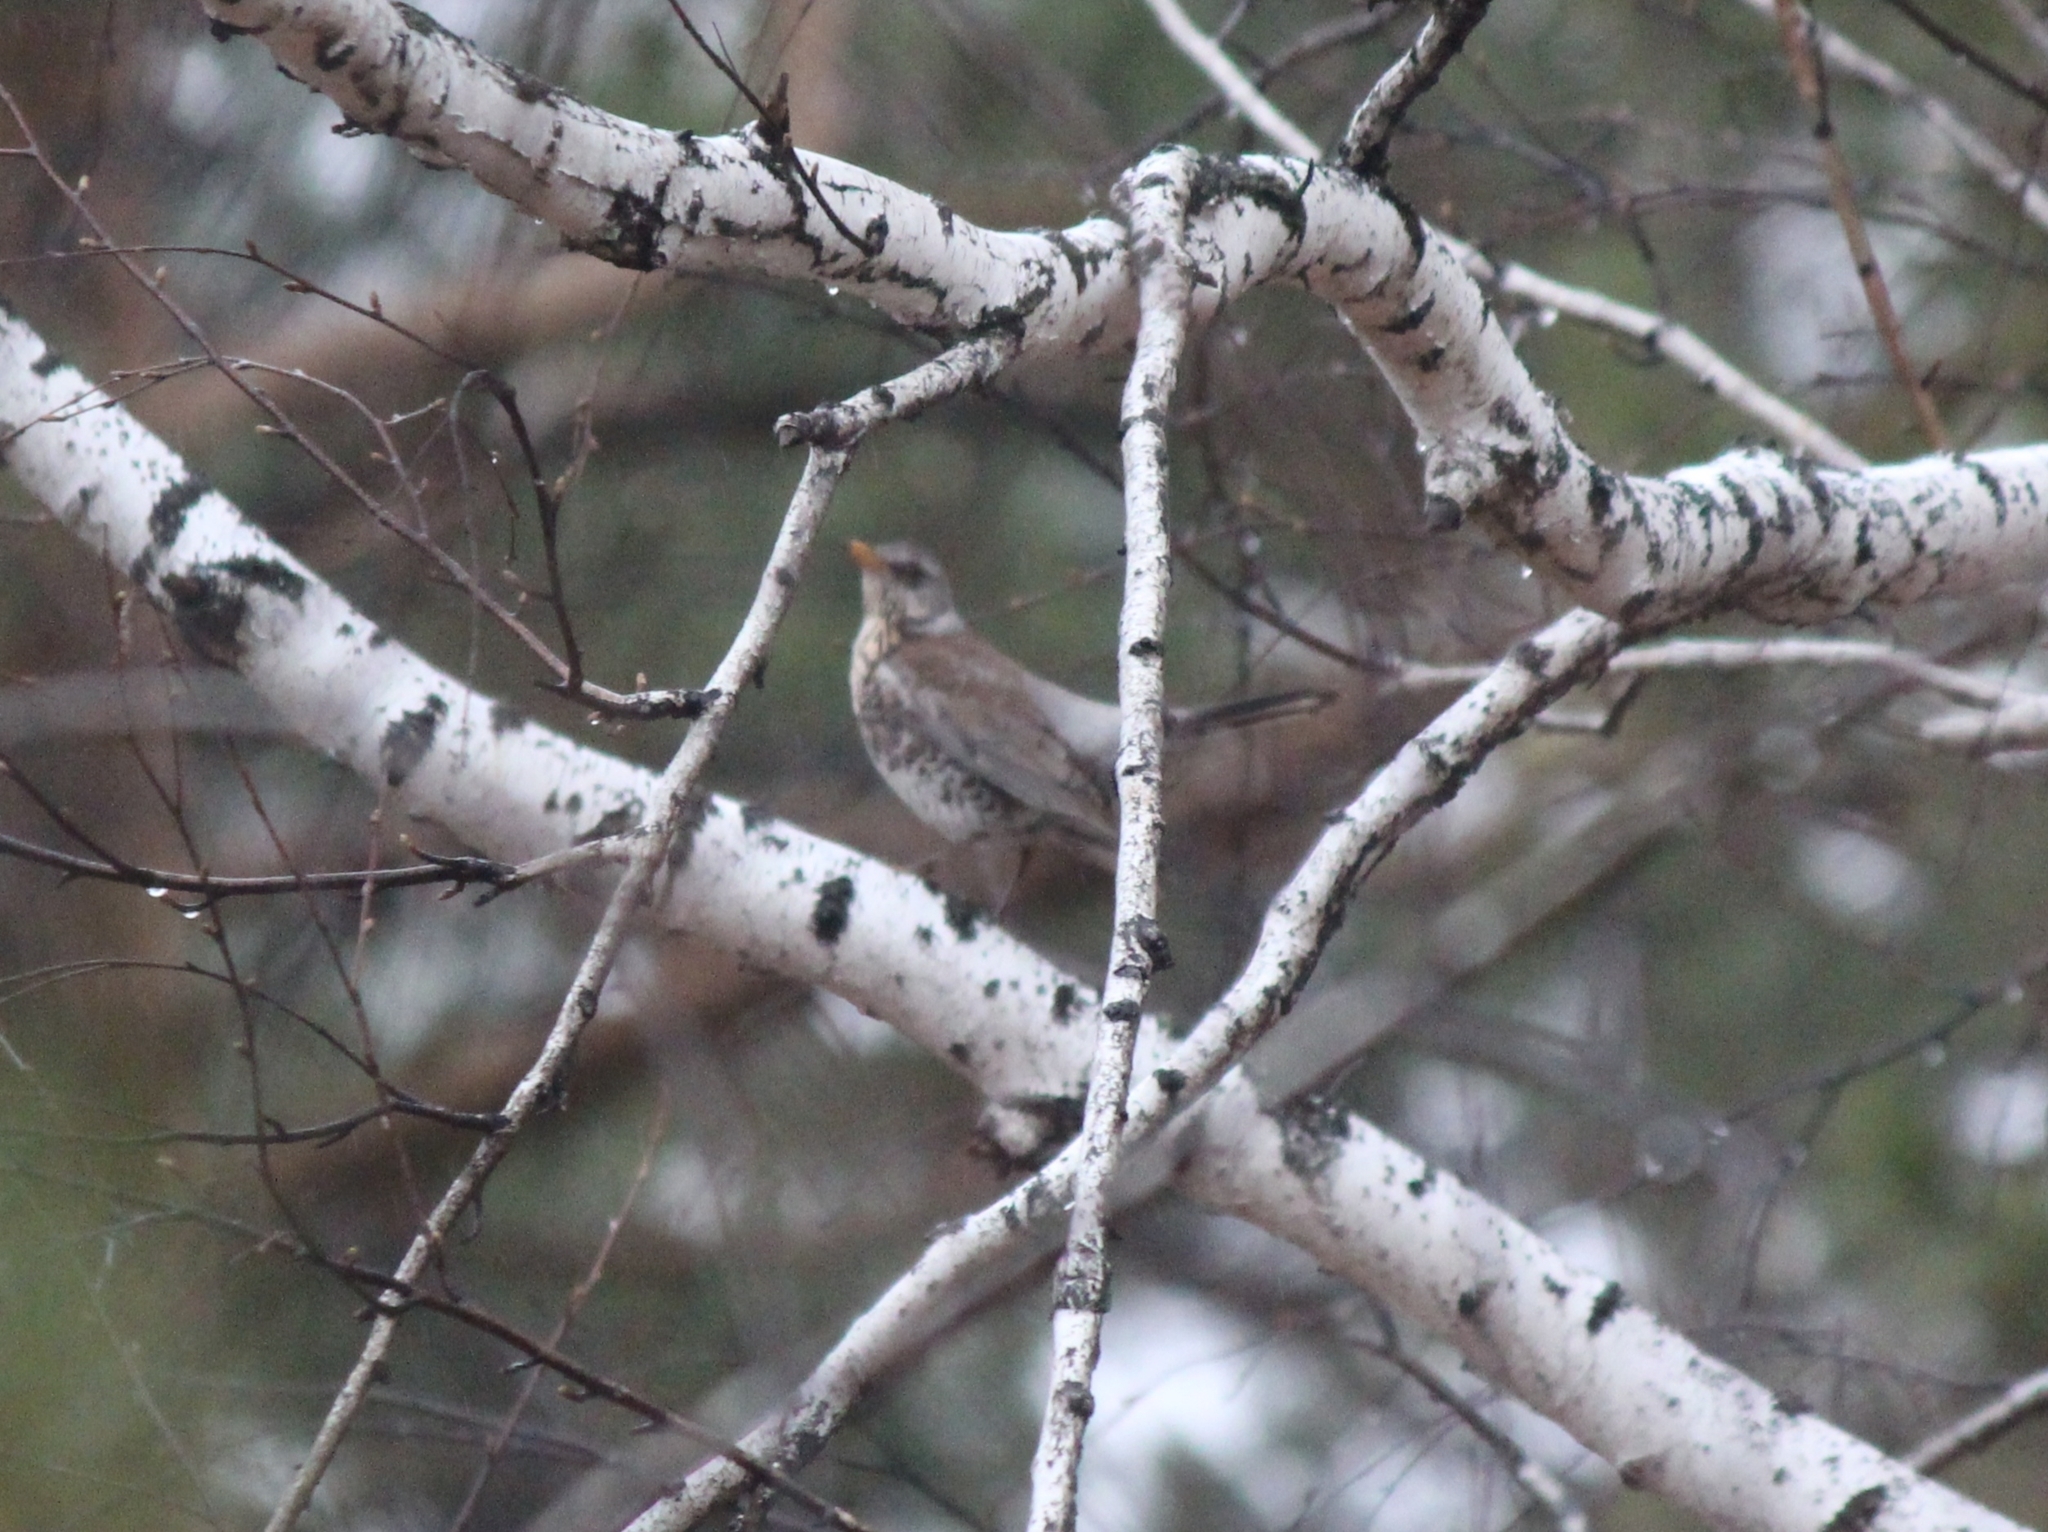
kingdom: Animalia
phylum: Chordata
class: Aves
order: Passeriformes
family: Turdidae
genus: Turdus
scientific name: Turdus pilaris
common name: Fieldfare
